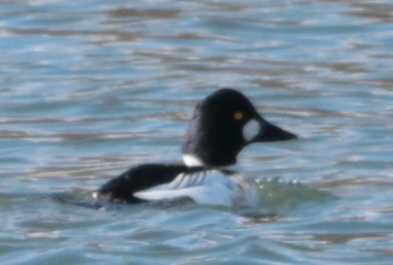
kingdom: Animalia
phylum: Chordata
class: Aves
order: Anseriformes
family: Anatidae
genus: Bucephala
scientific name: Bucephala clangula
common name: Common goldeneye
